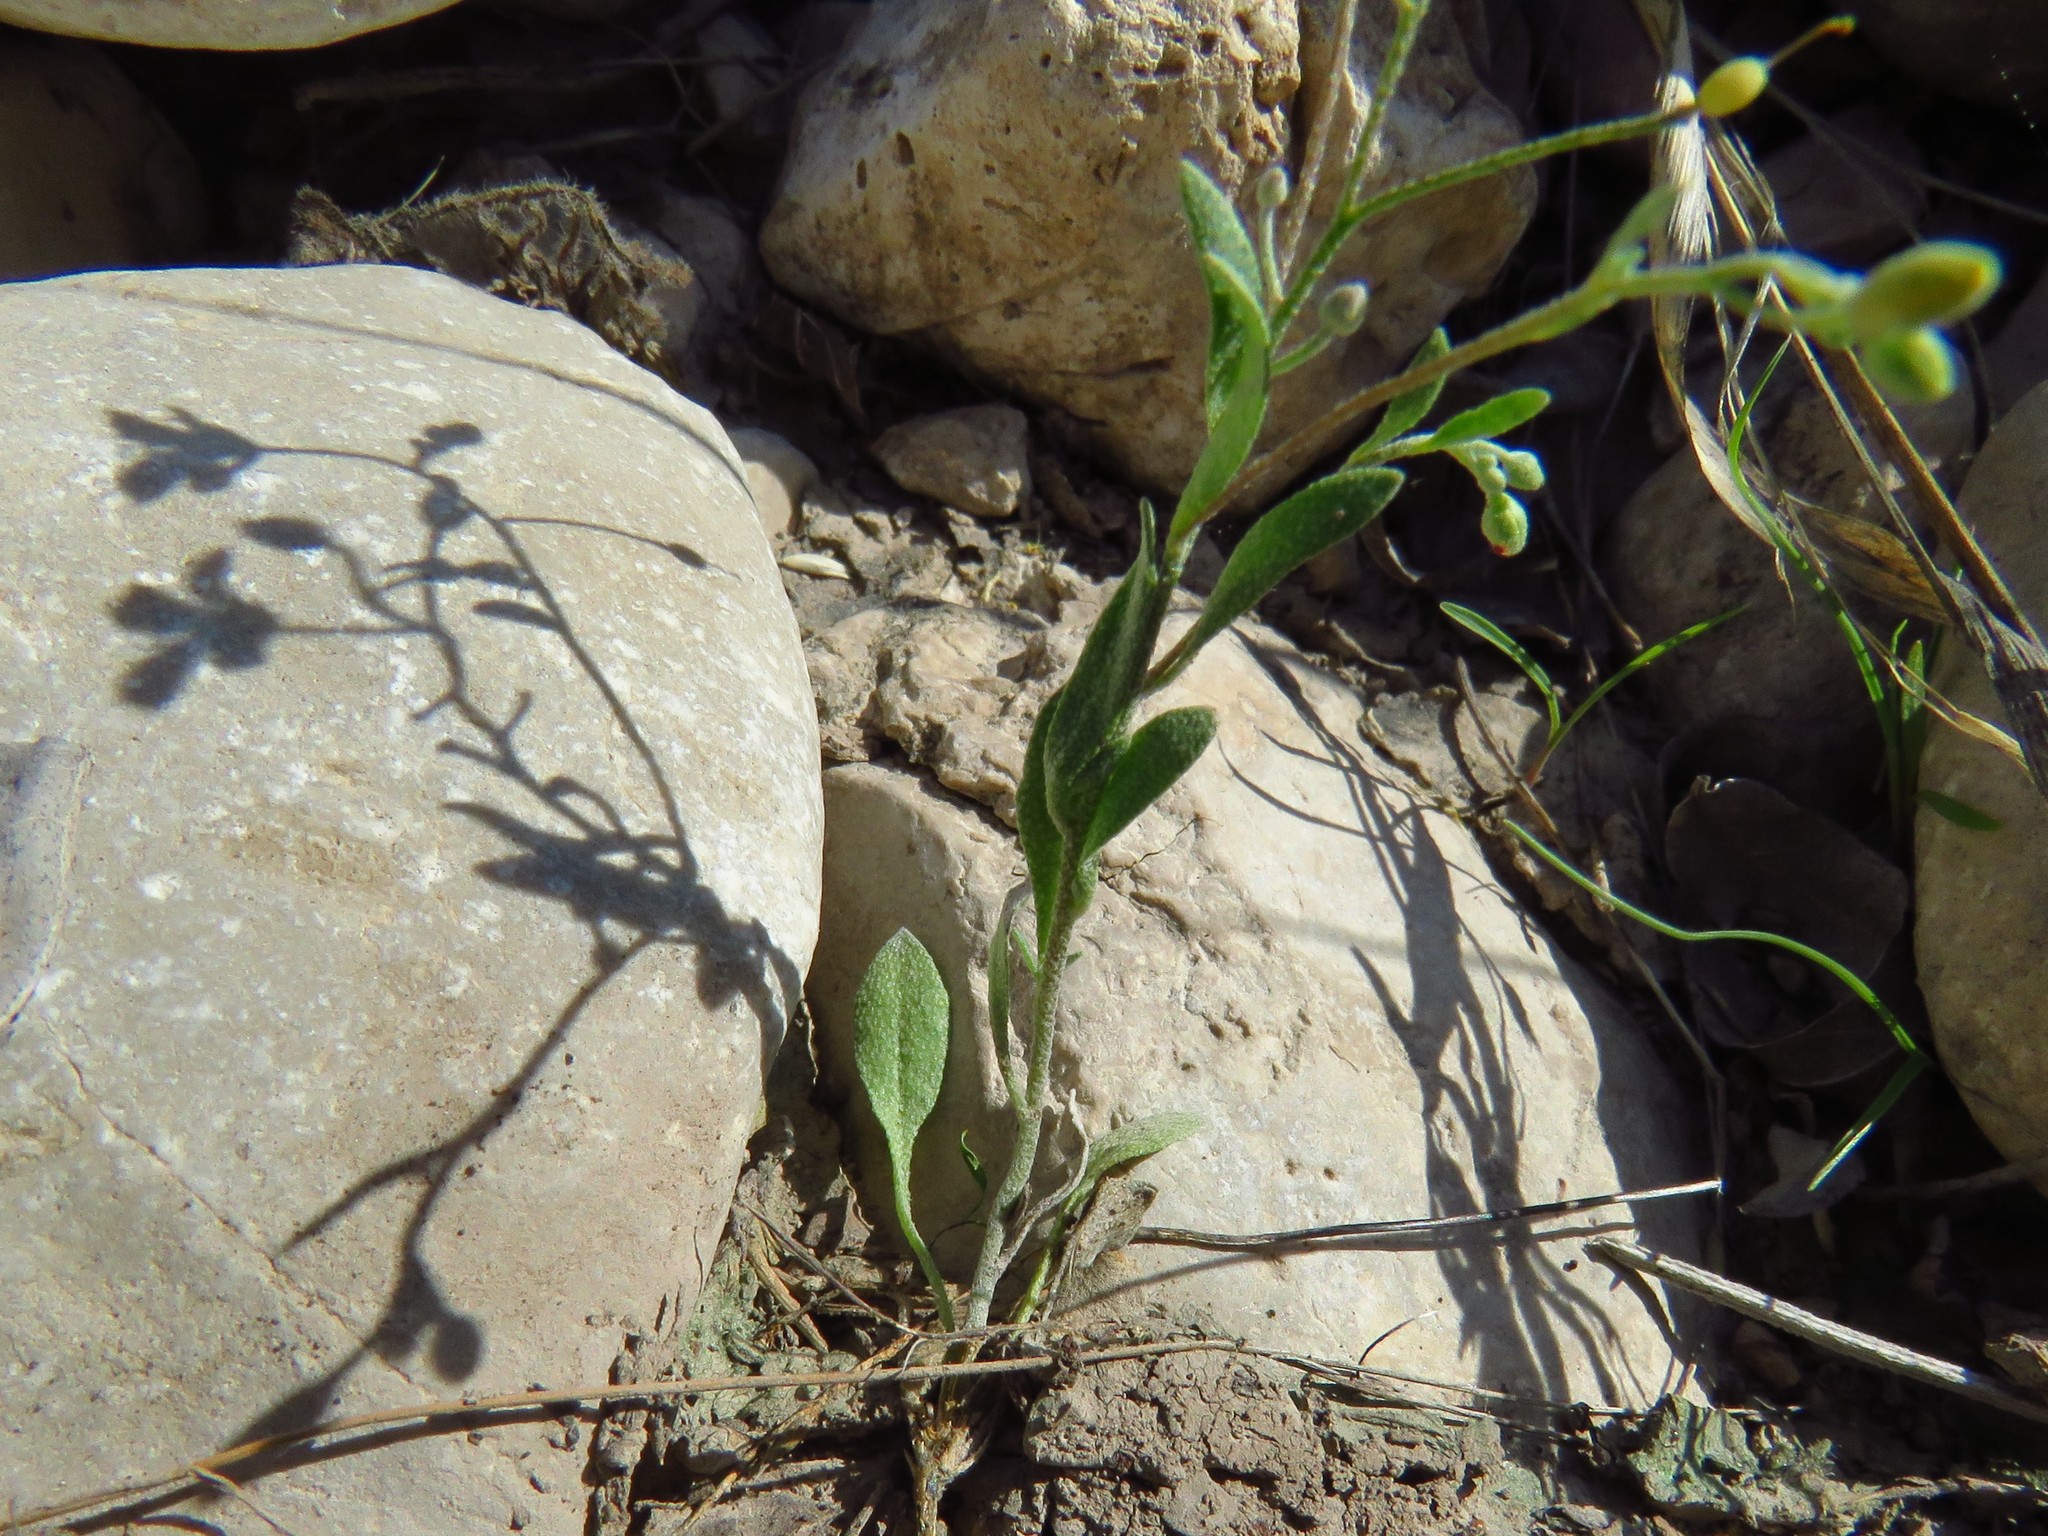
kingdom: Plantae
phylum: Tracheophyta
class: Magnoliopsida
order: Brassicales
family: Brassicaceae
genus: Physaria
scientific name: Physaria recurvata
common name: Gaslight bladderpod
